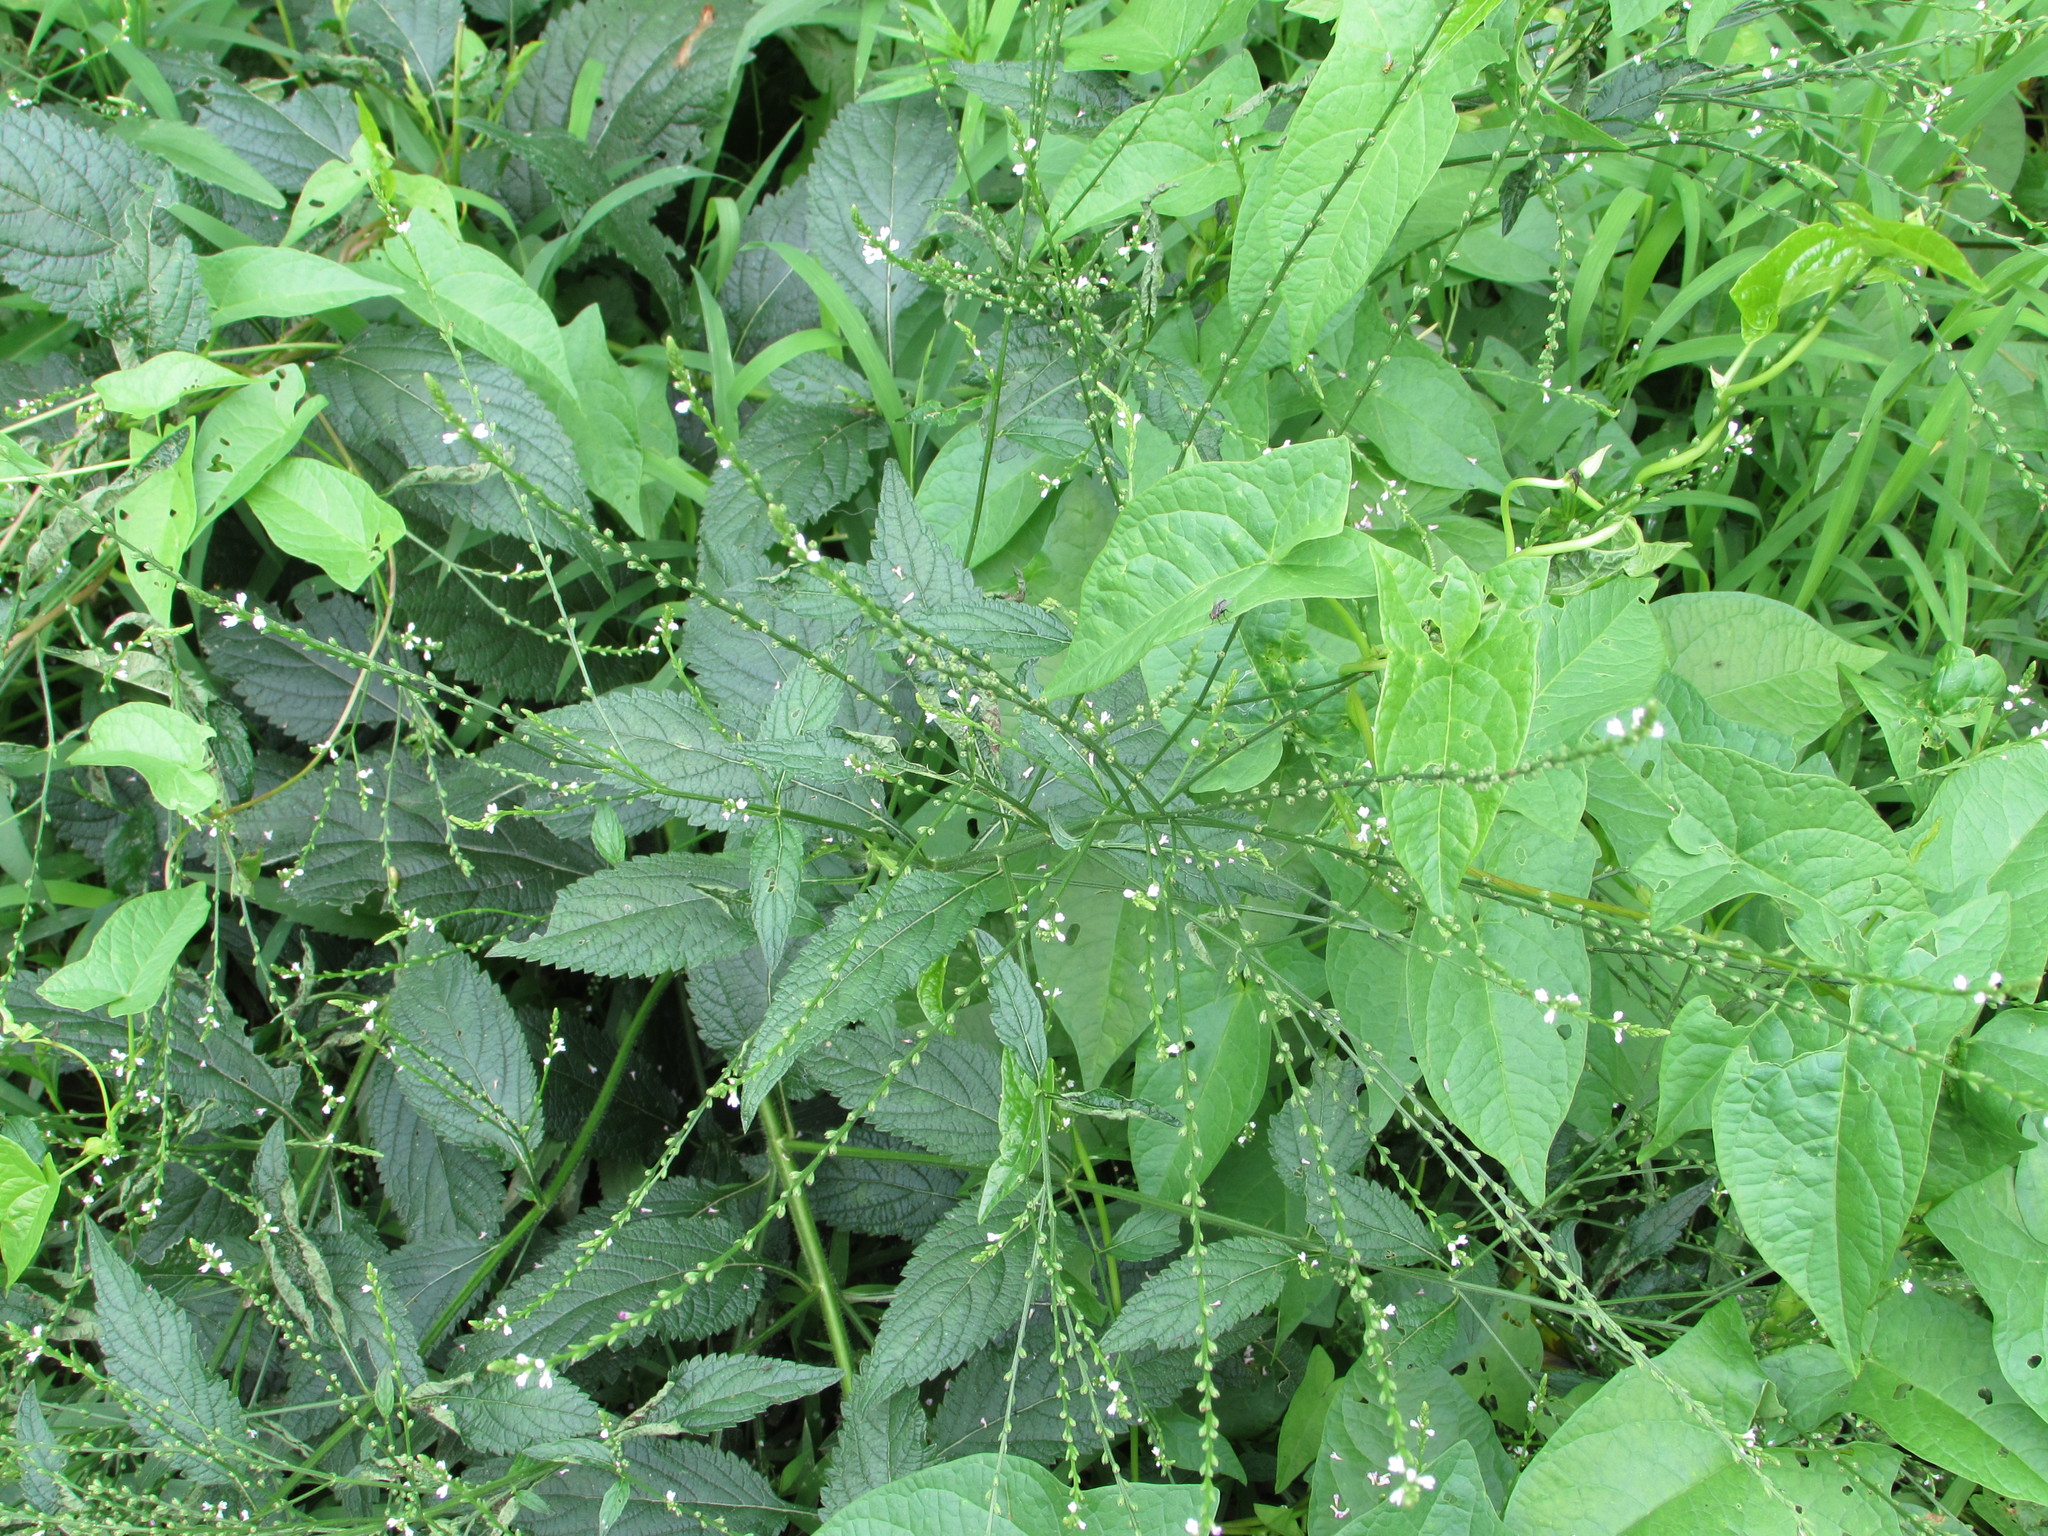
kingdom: Plantae
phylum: Tracheophyta
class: Magnoliopsida
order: Lamiales
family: Verbenaceae
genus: Verbena
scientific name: Verbena urticifolia
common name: Nettle-leaved vervain
